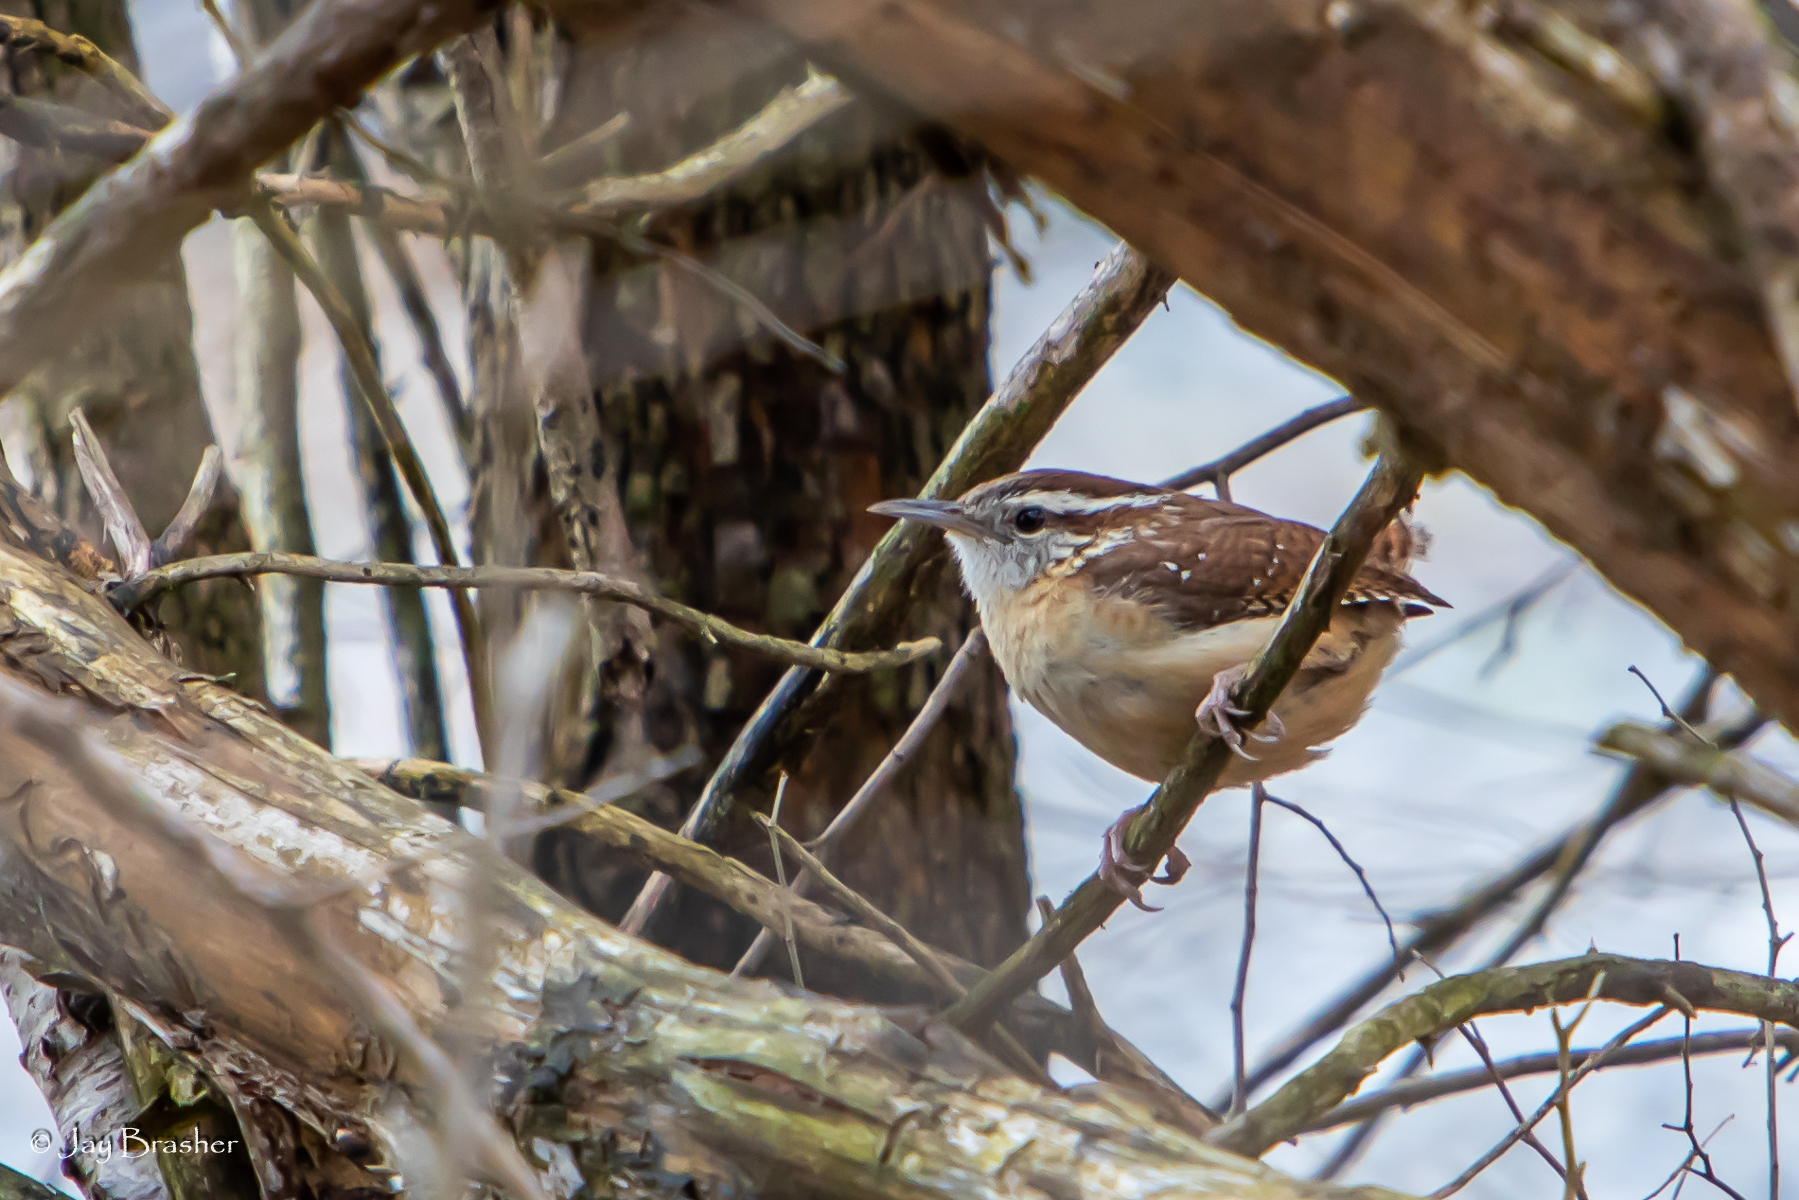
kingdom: Animalia
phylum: Chordata
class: Aves
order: Passeriformes
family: Troglodytidae
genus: Thryothorus
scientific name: Thryothorus ludovicianus
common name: Carolina wren
